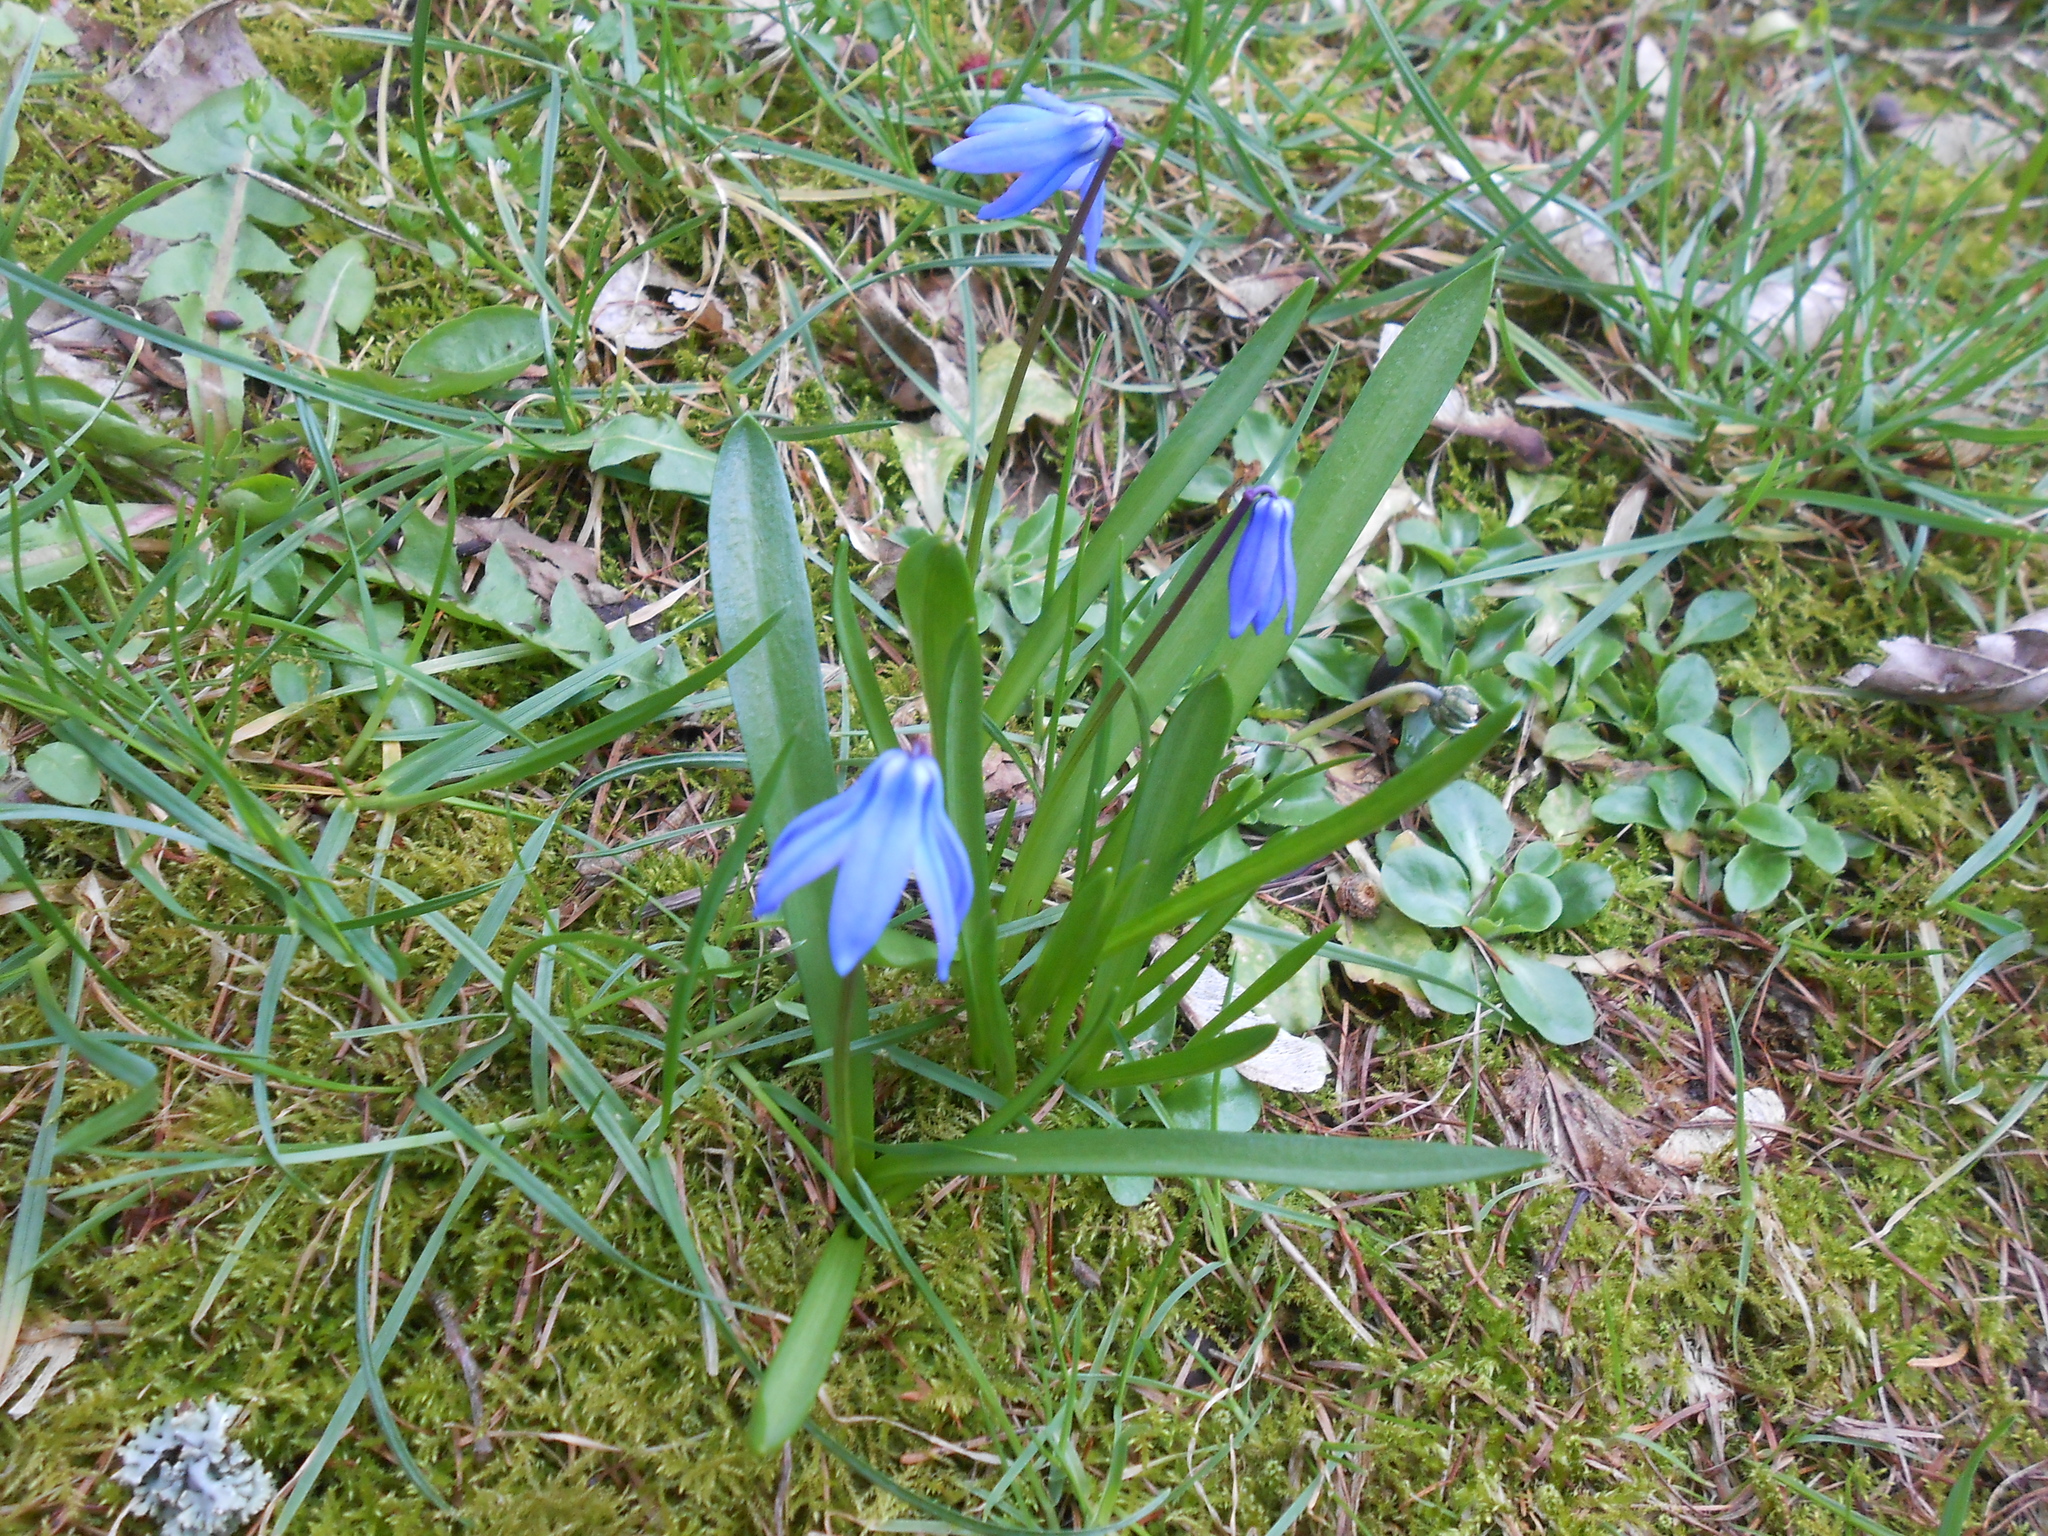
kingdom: Plantae
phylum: Tracheophyta
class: Liliopsida
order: Asparagales
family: Asparagaceae
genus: Scilla
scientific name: Scilla siberica
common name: Siberian squill
